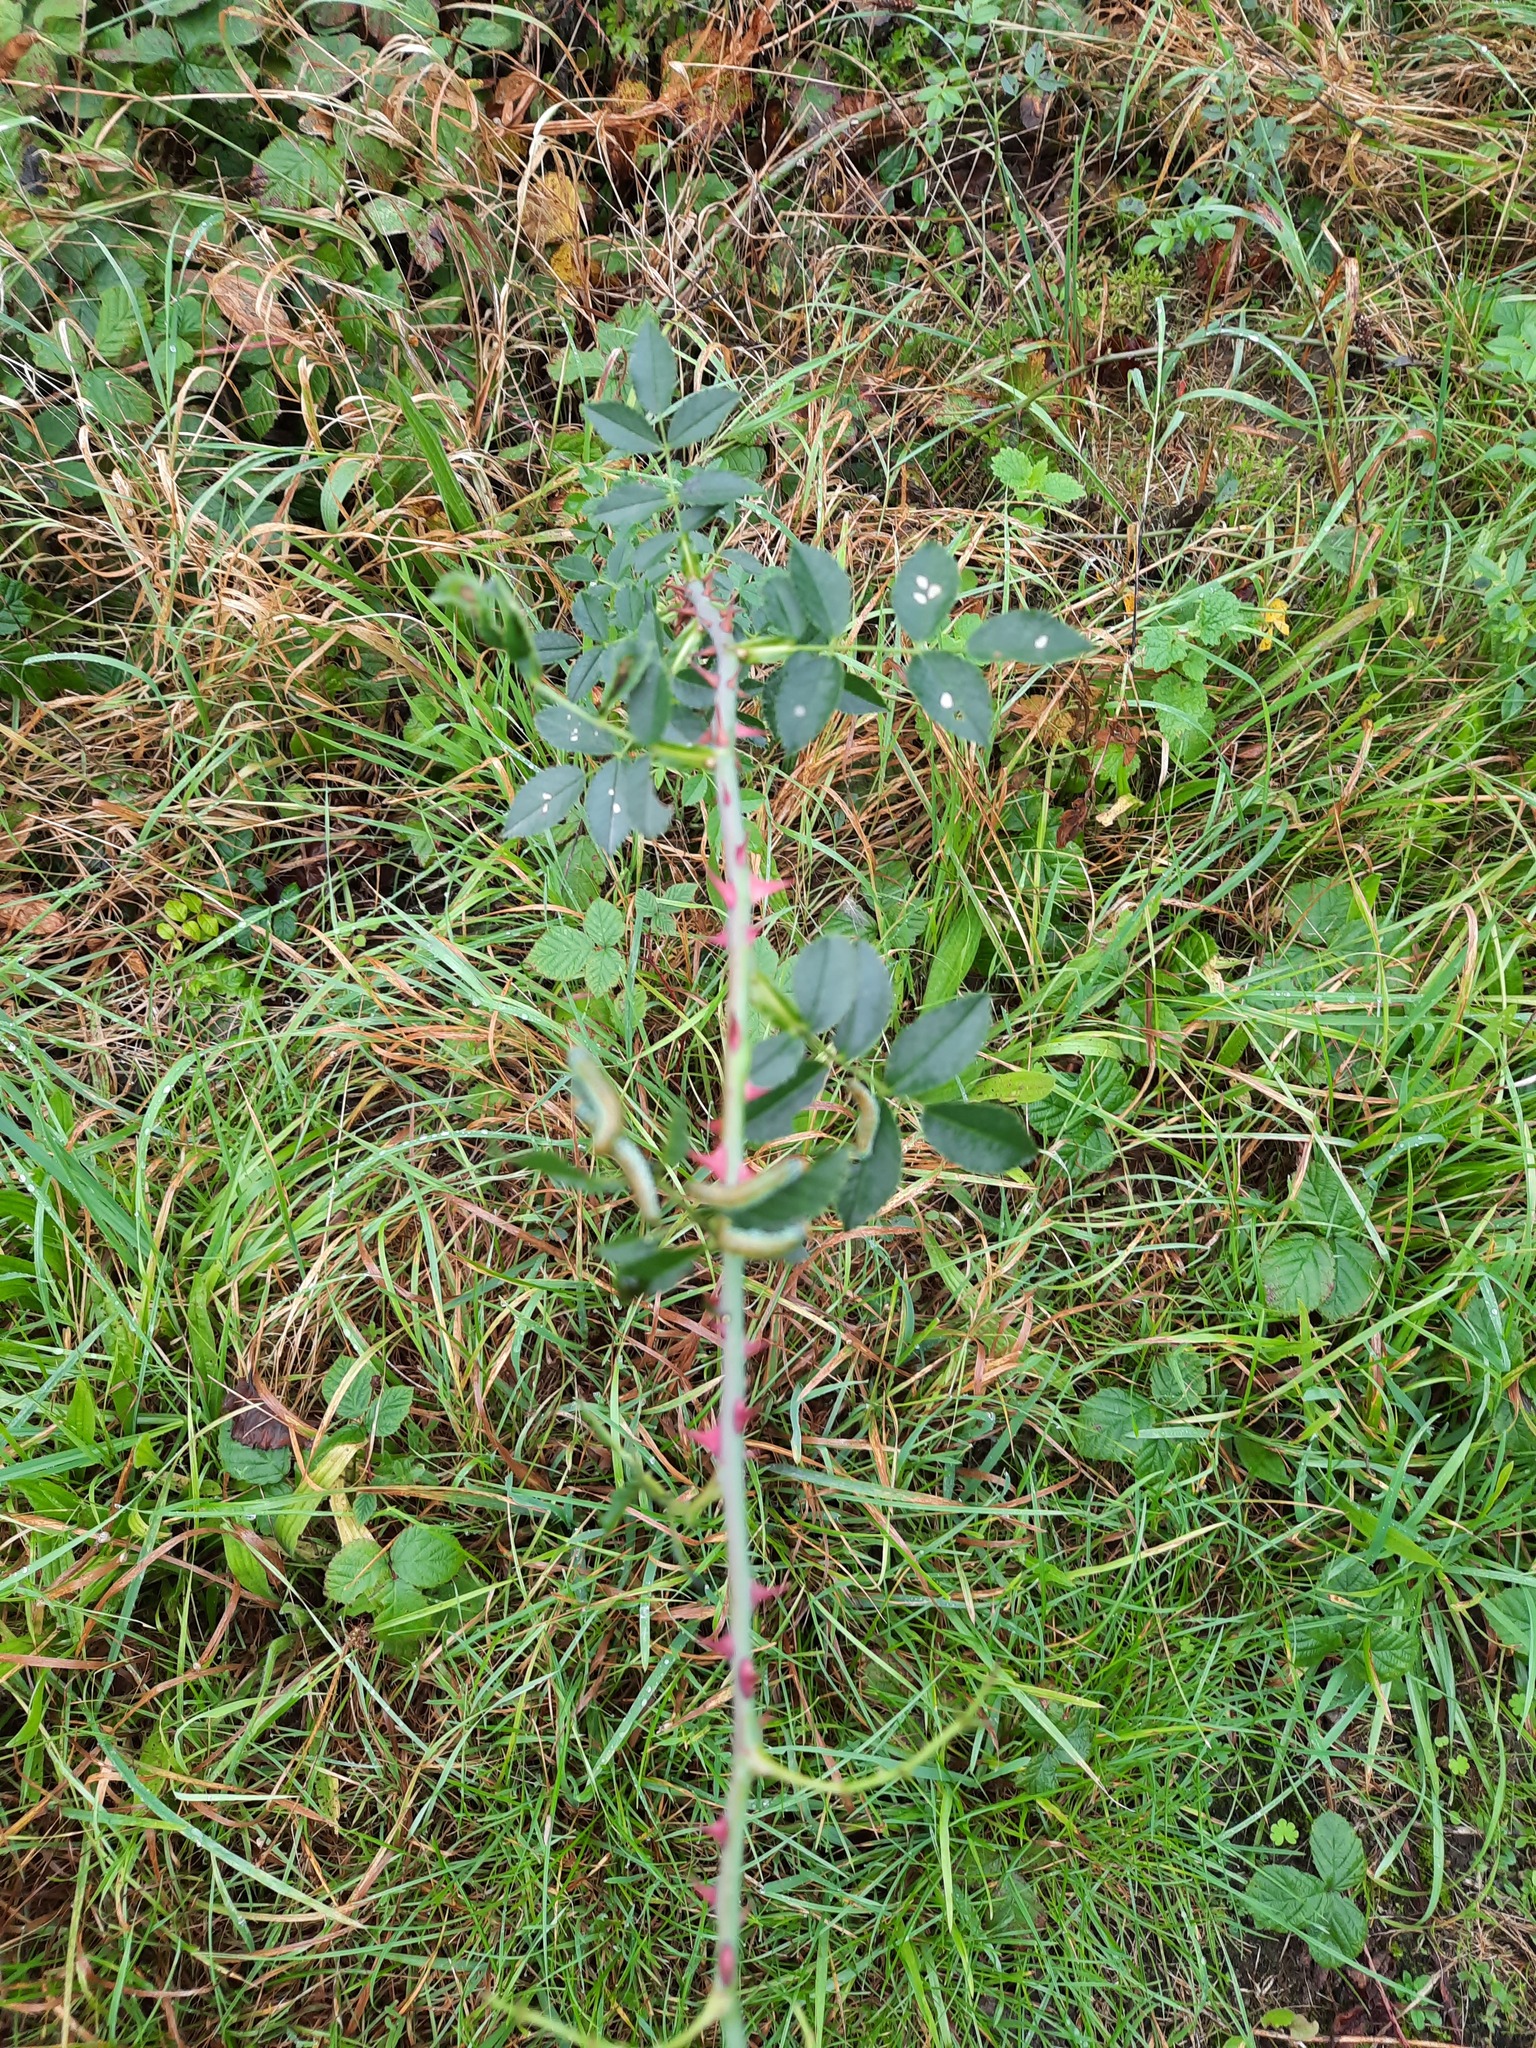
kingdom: Plantae
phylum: Tracheophyta
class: Magnoliopsida
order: Rosales
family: Rosaceae
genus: Rosa
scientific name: Rosa canina
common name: Dog rose
